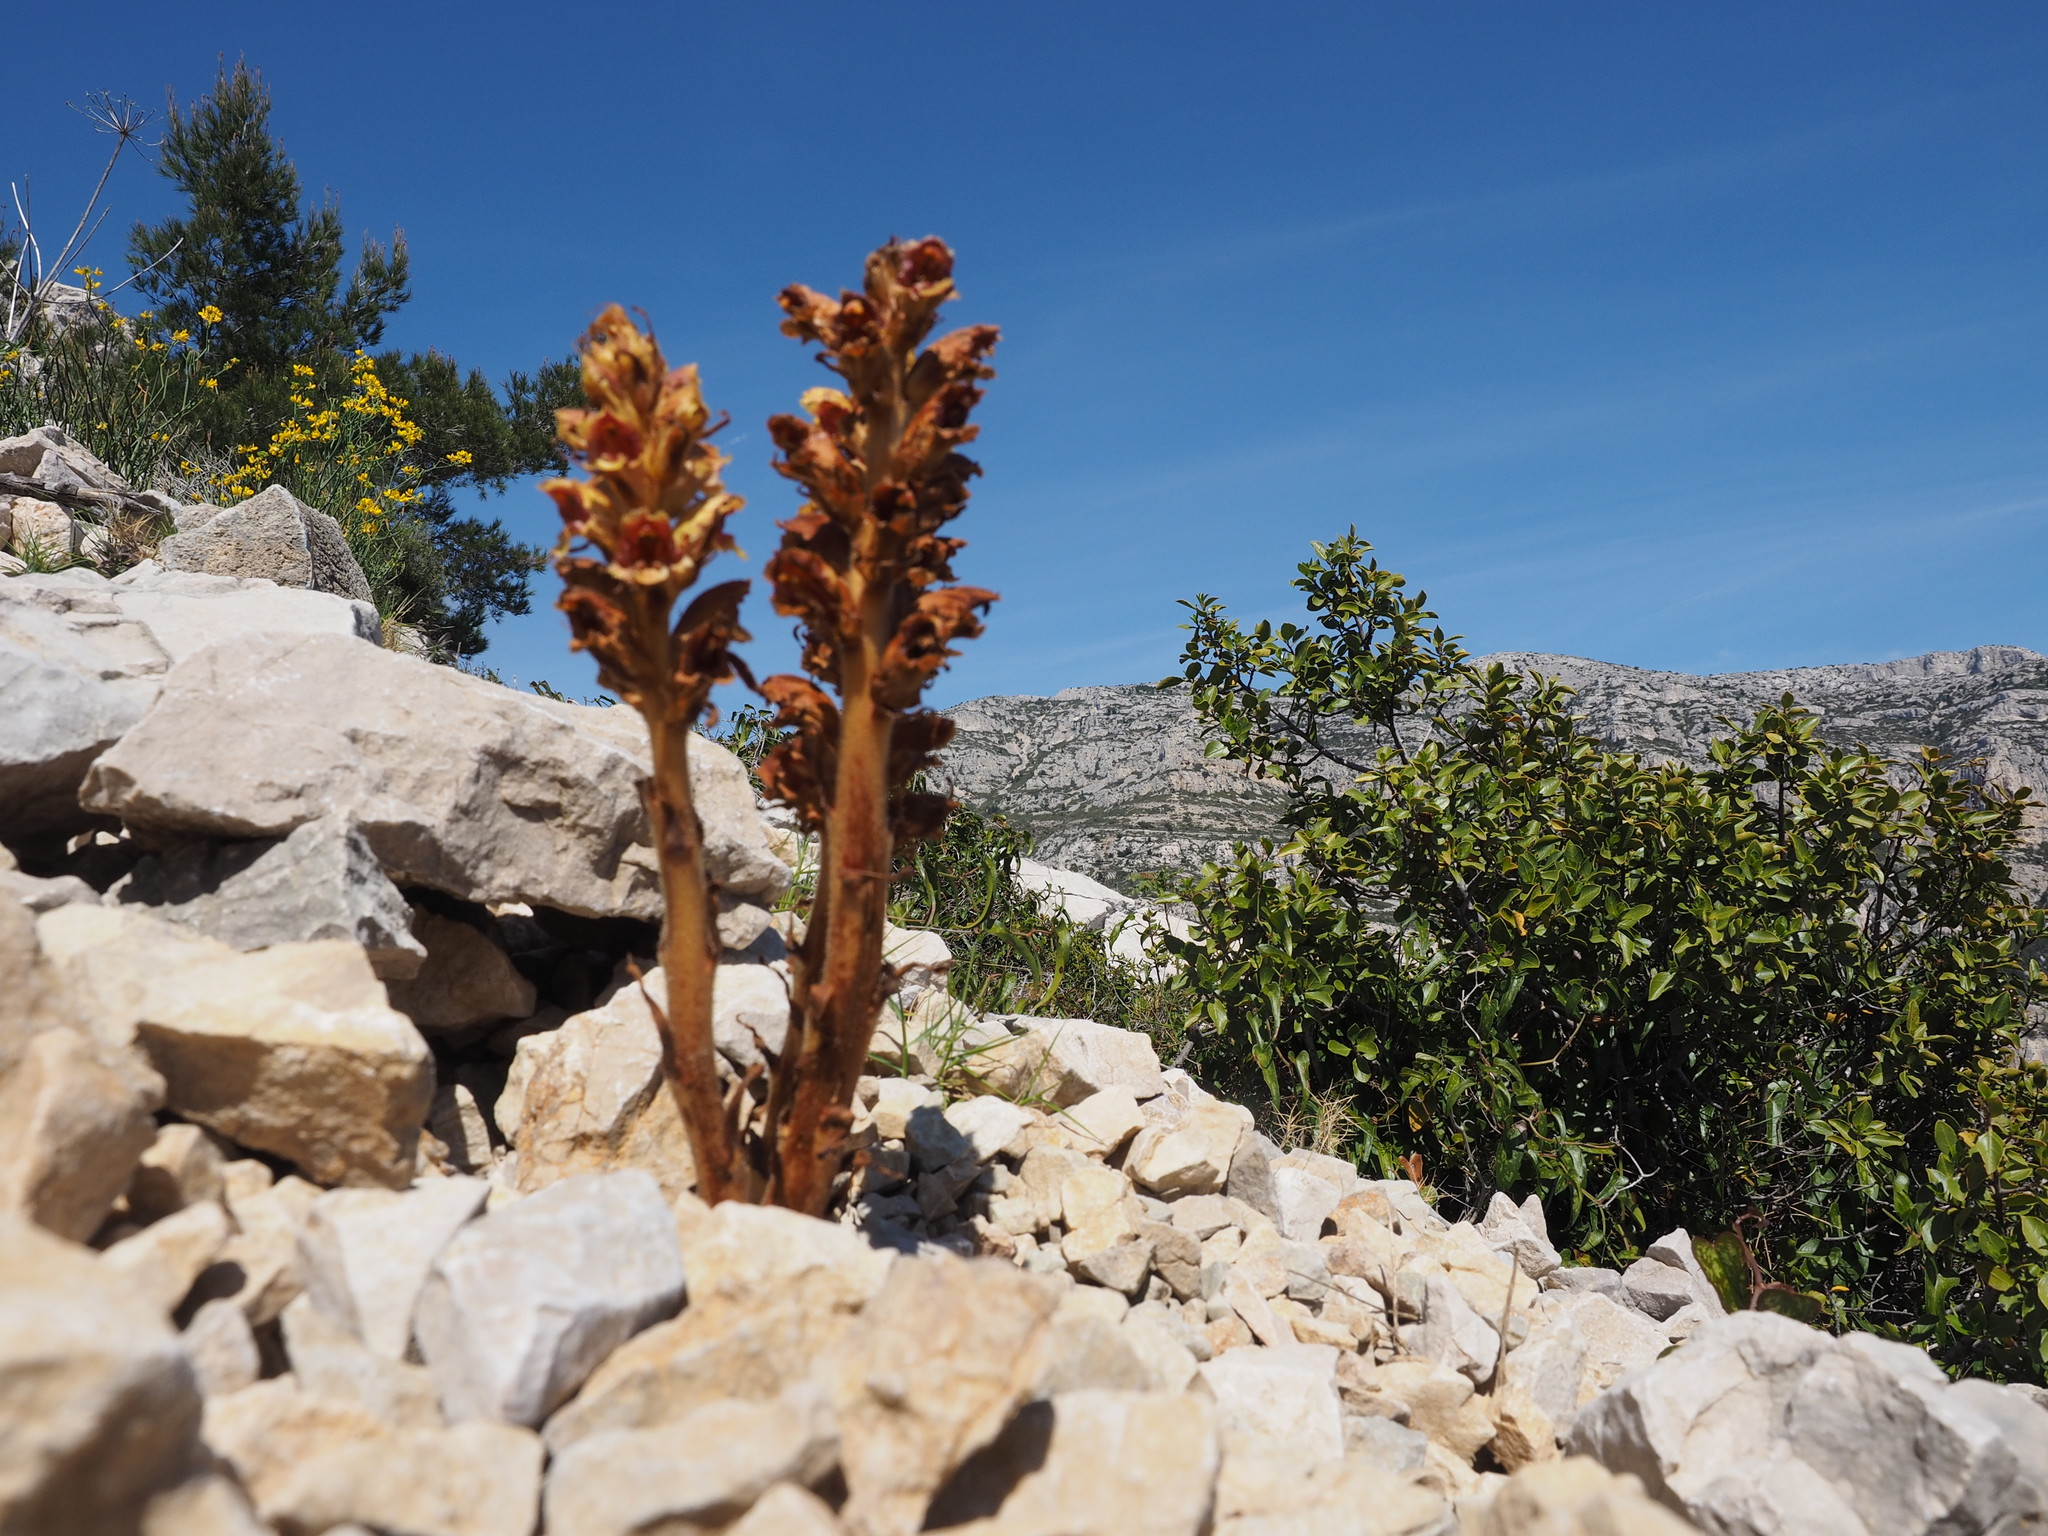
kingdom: Plantae
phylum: Tracheophyta
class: Magnoliopsida
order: Lamiales
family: Orobanchaceae
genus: Orobanche
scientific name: Orobanche gracilis
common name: Slender broomrape
